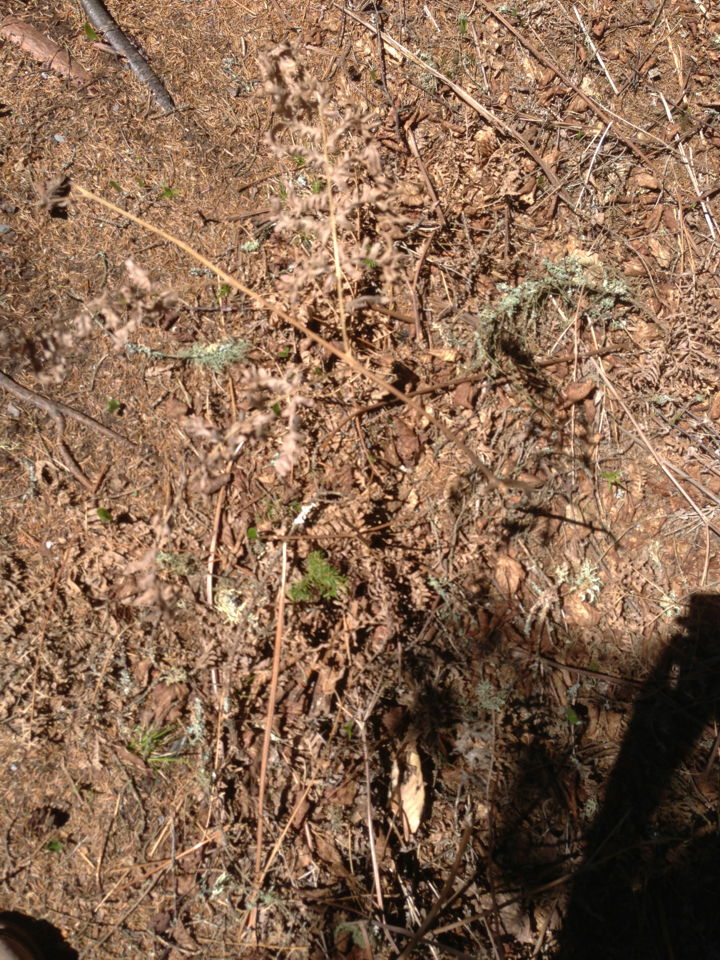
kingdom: Plantae
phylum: Tracheophyta
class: Polypodiopsida
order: Polypodiales
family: Dennstaedtiaceae
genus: Pteridium
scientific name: Pteridium aquilinum
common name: Bracken
